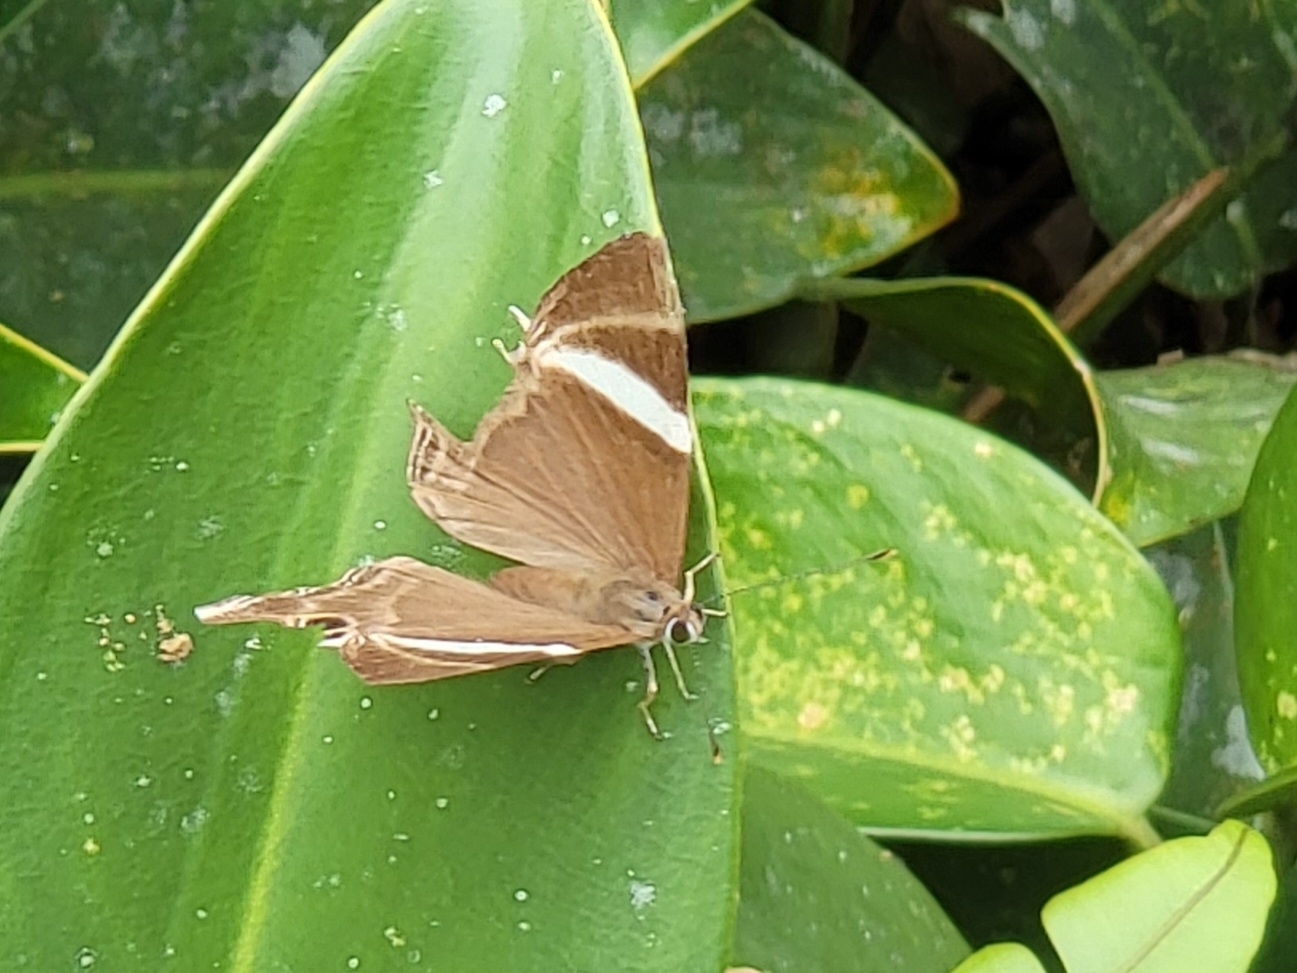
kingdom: Animalia
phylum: Arthropoda
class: Insecta
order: Lepidoptera
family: Lycaenidae
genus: Abisara
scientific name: Abisara neophron
